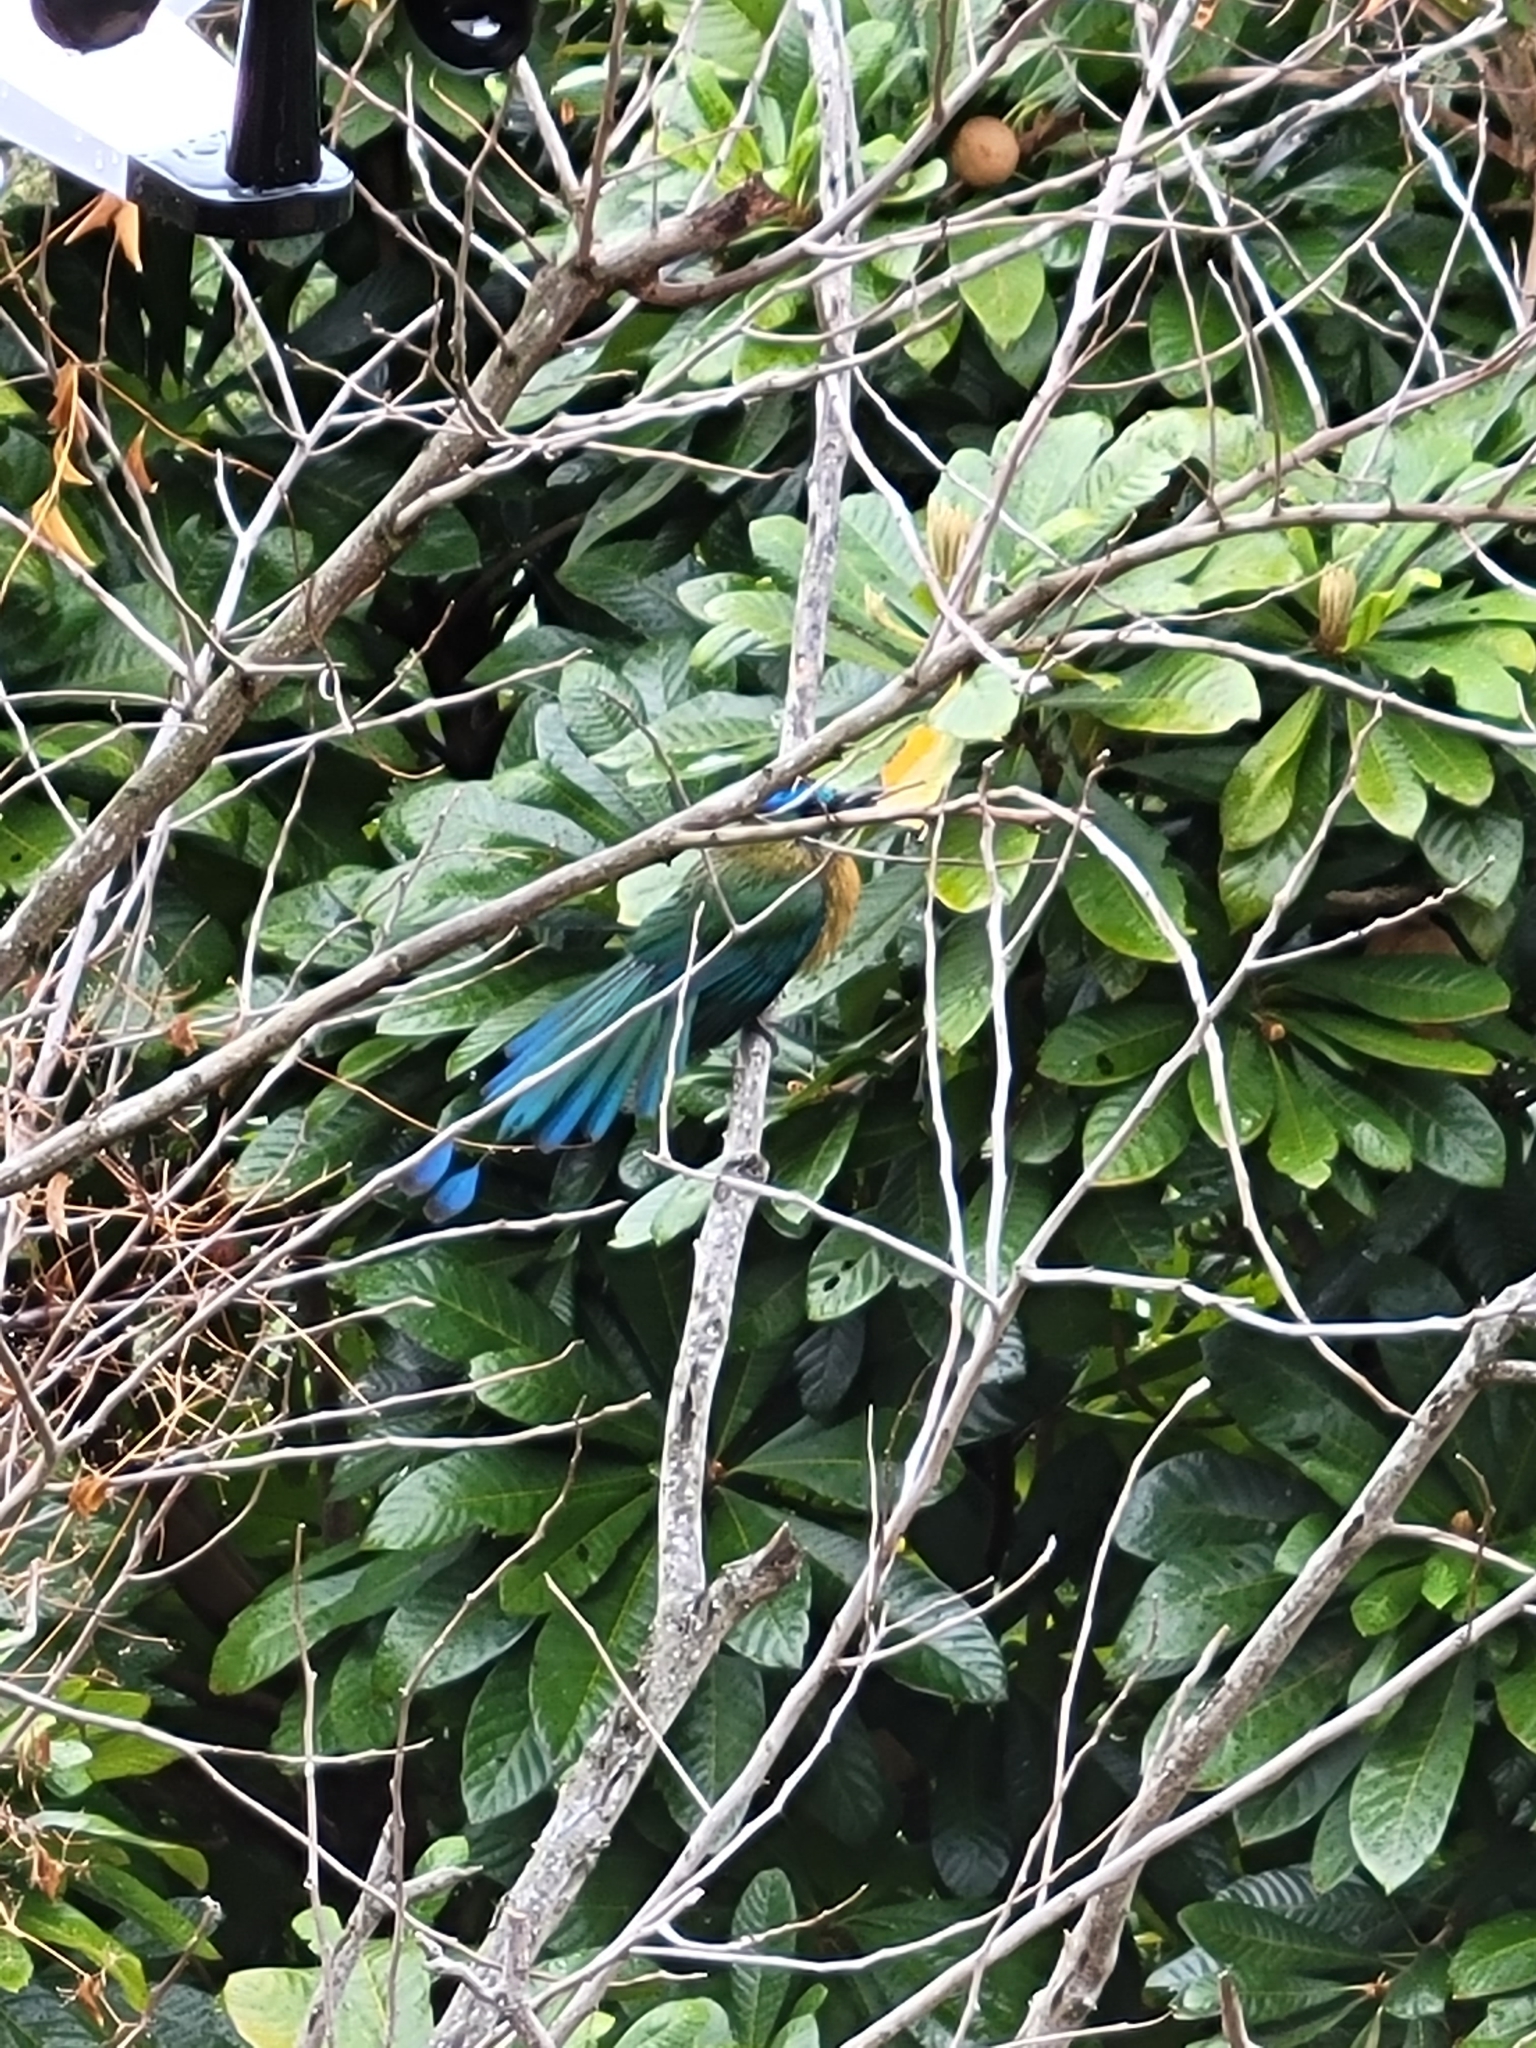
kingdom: Animalia
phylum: Chordata
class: Aves
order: Coraciiformes
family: Momotidae
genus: Momotus
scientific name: Momotus lessonii
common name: Lesson's motmot
